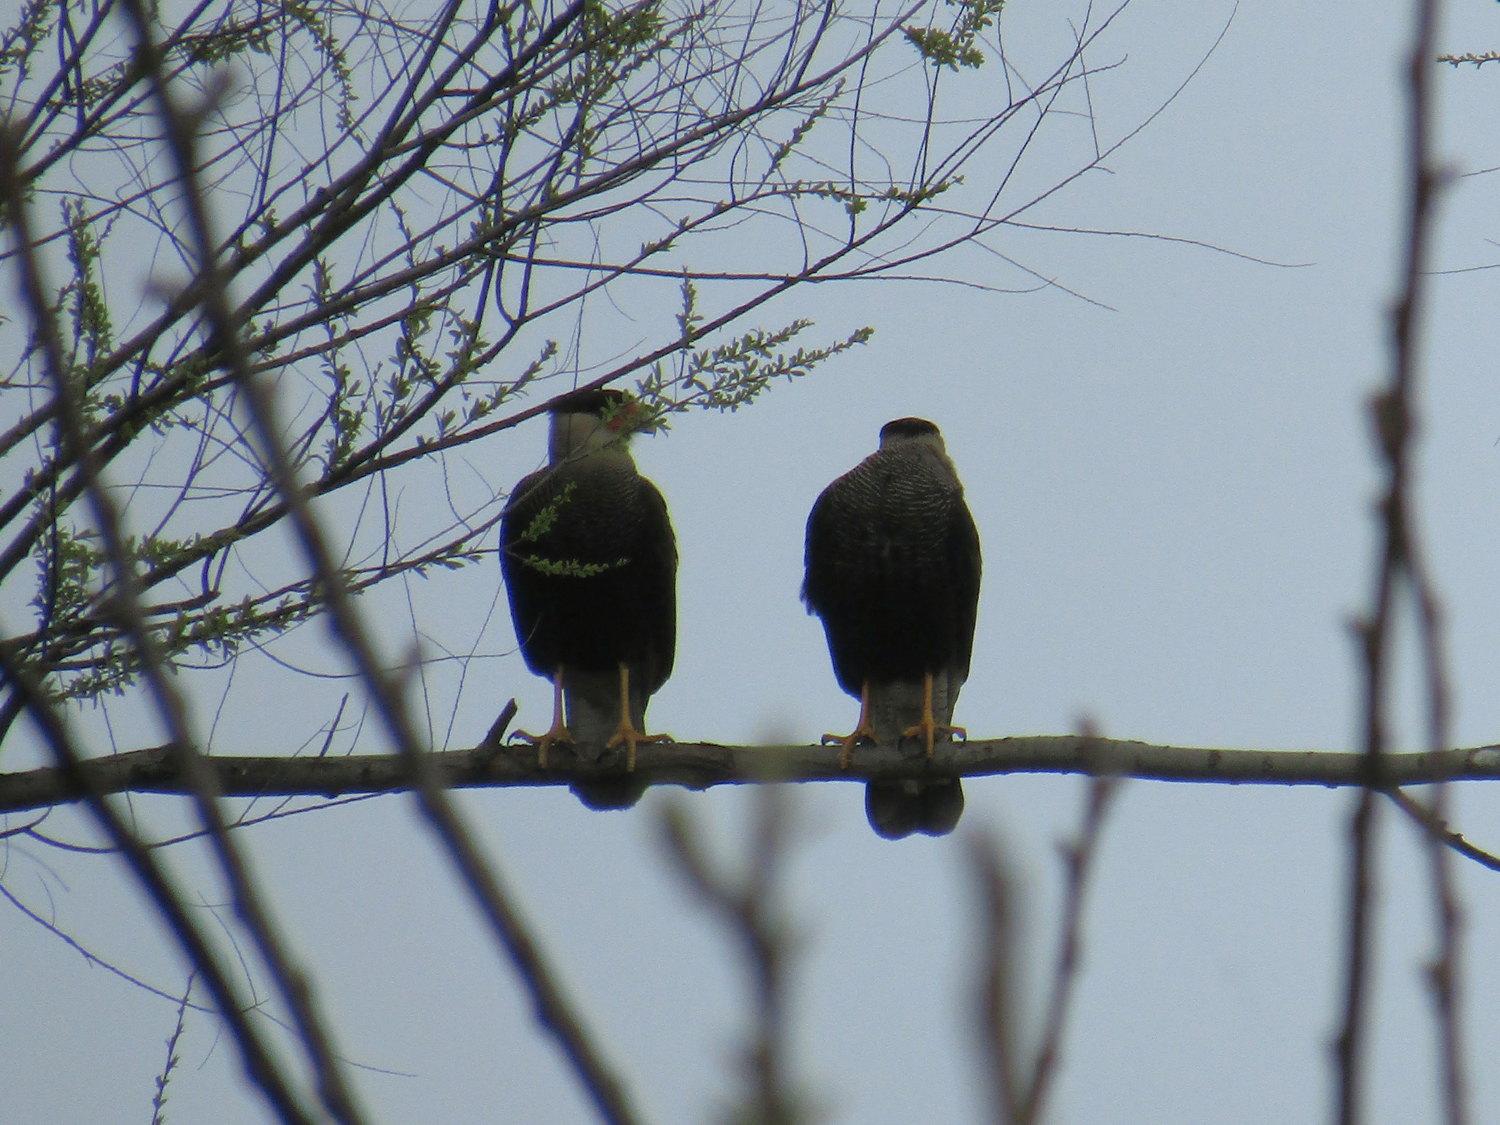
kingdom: Animalia
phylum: Chordata
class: Aves
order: Falconiformes
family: Falconidae
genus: Caracara
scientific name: Caracara plancus
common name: Southern caracara
